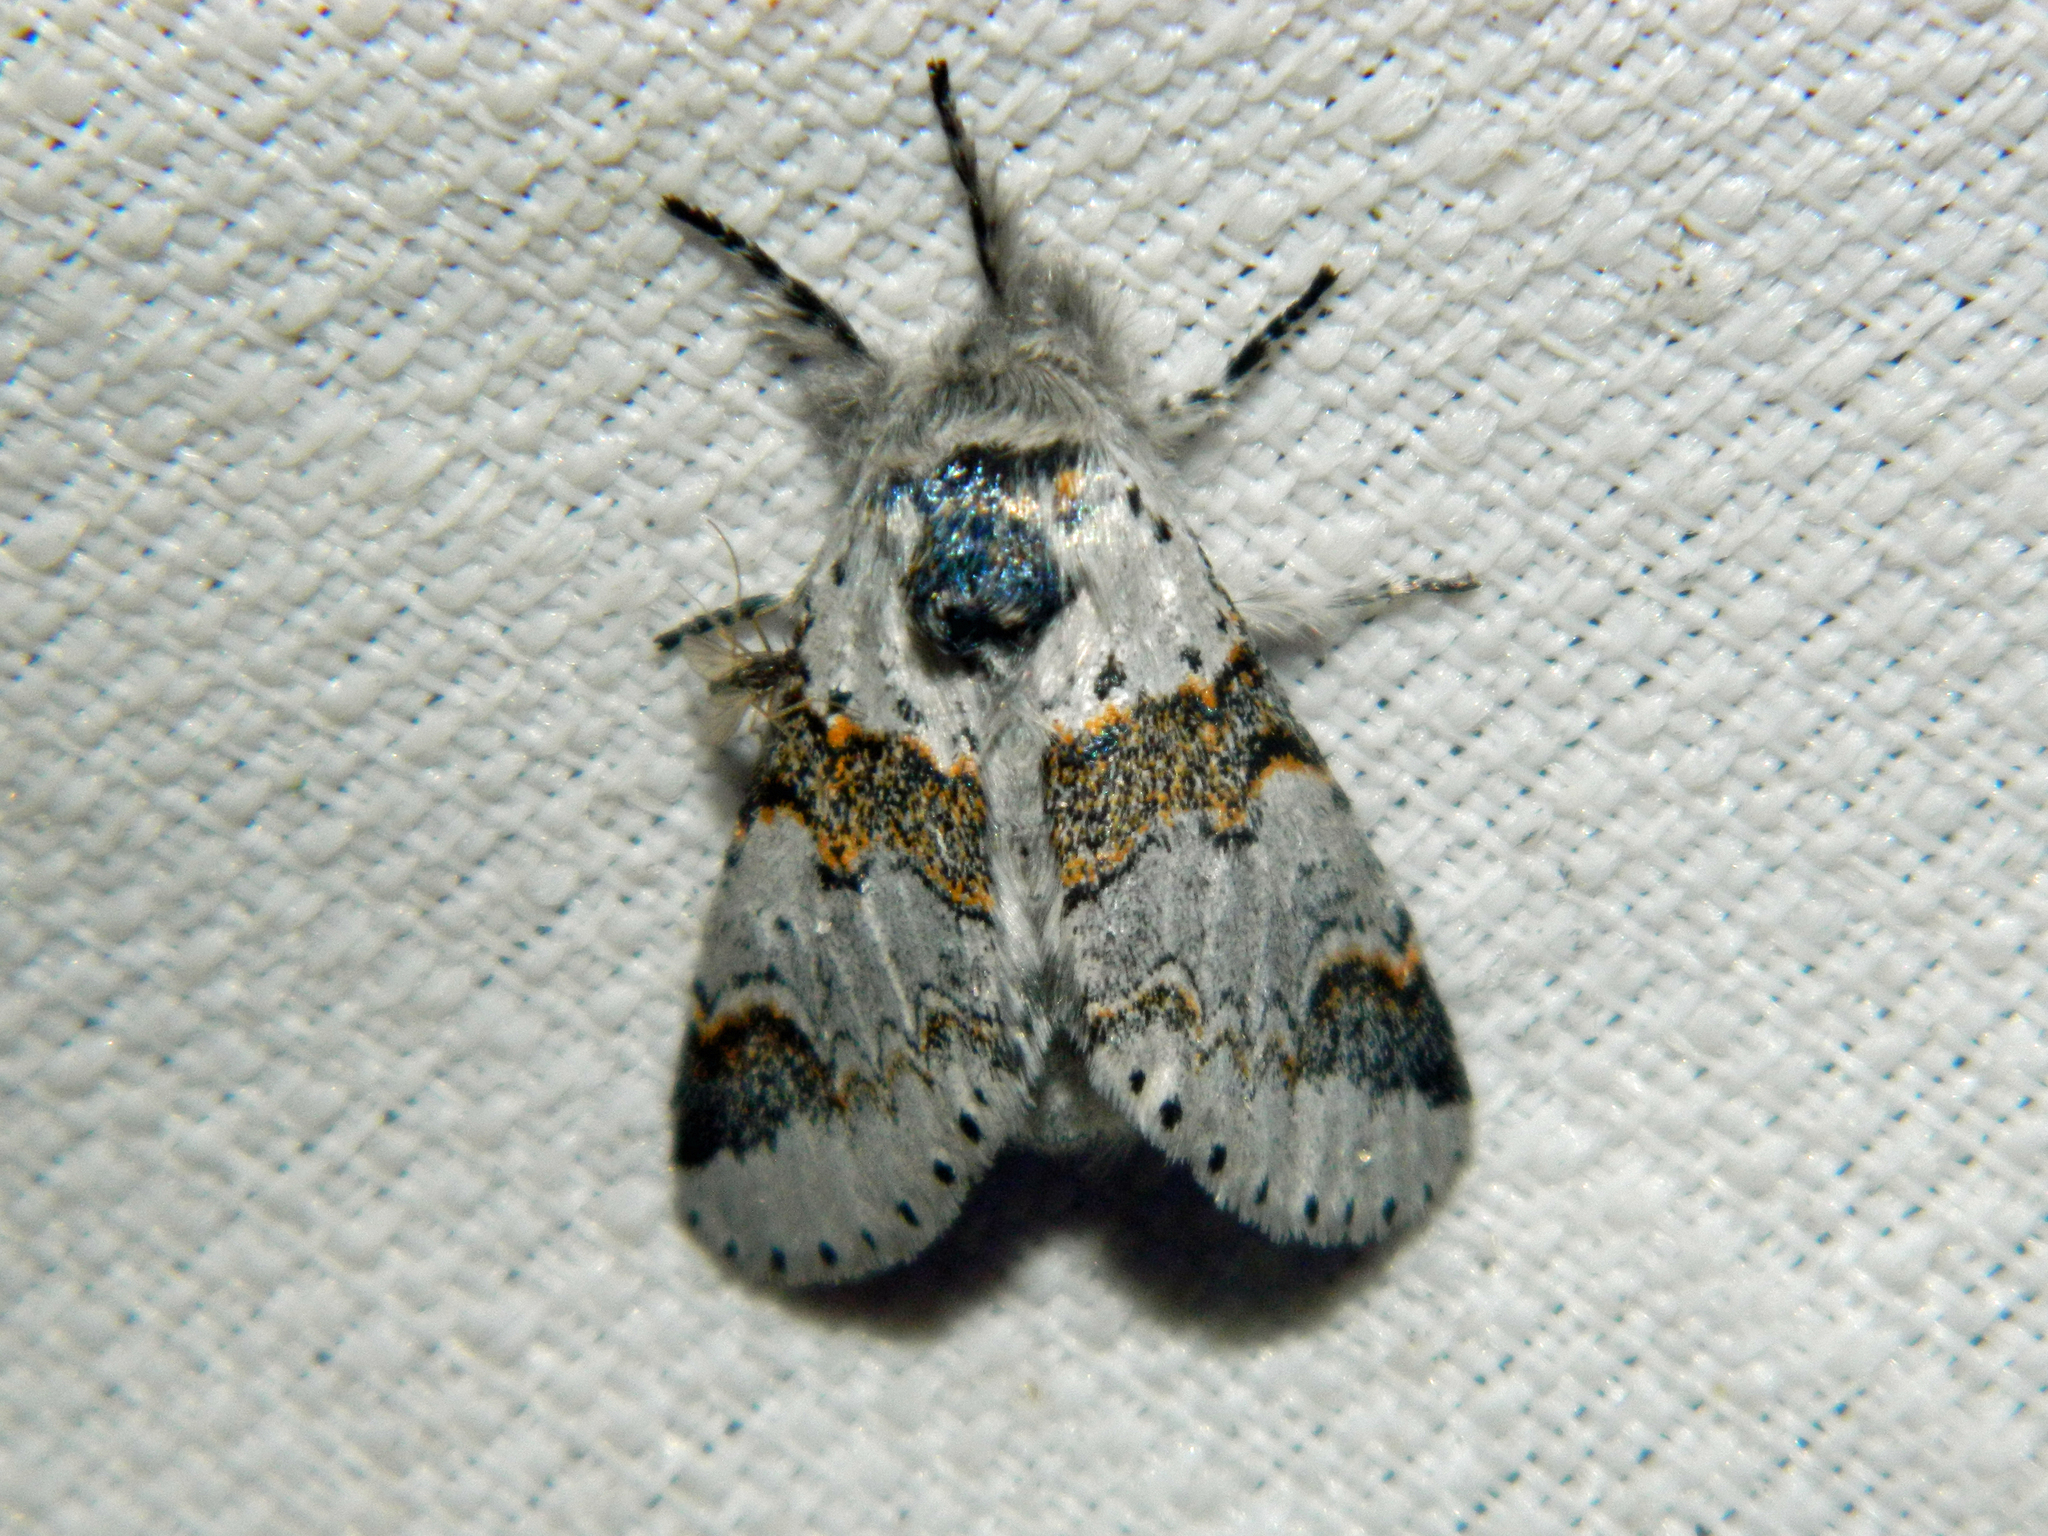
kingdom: Animalia
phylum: Arthropoda
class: Insecta
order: Lepidoptera
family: Notodontidae
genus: Furcula
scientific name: Furcula occidentalis
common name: Western furcula moth
